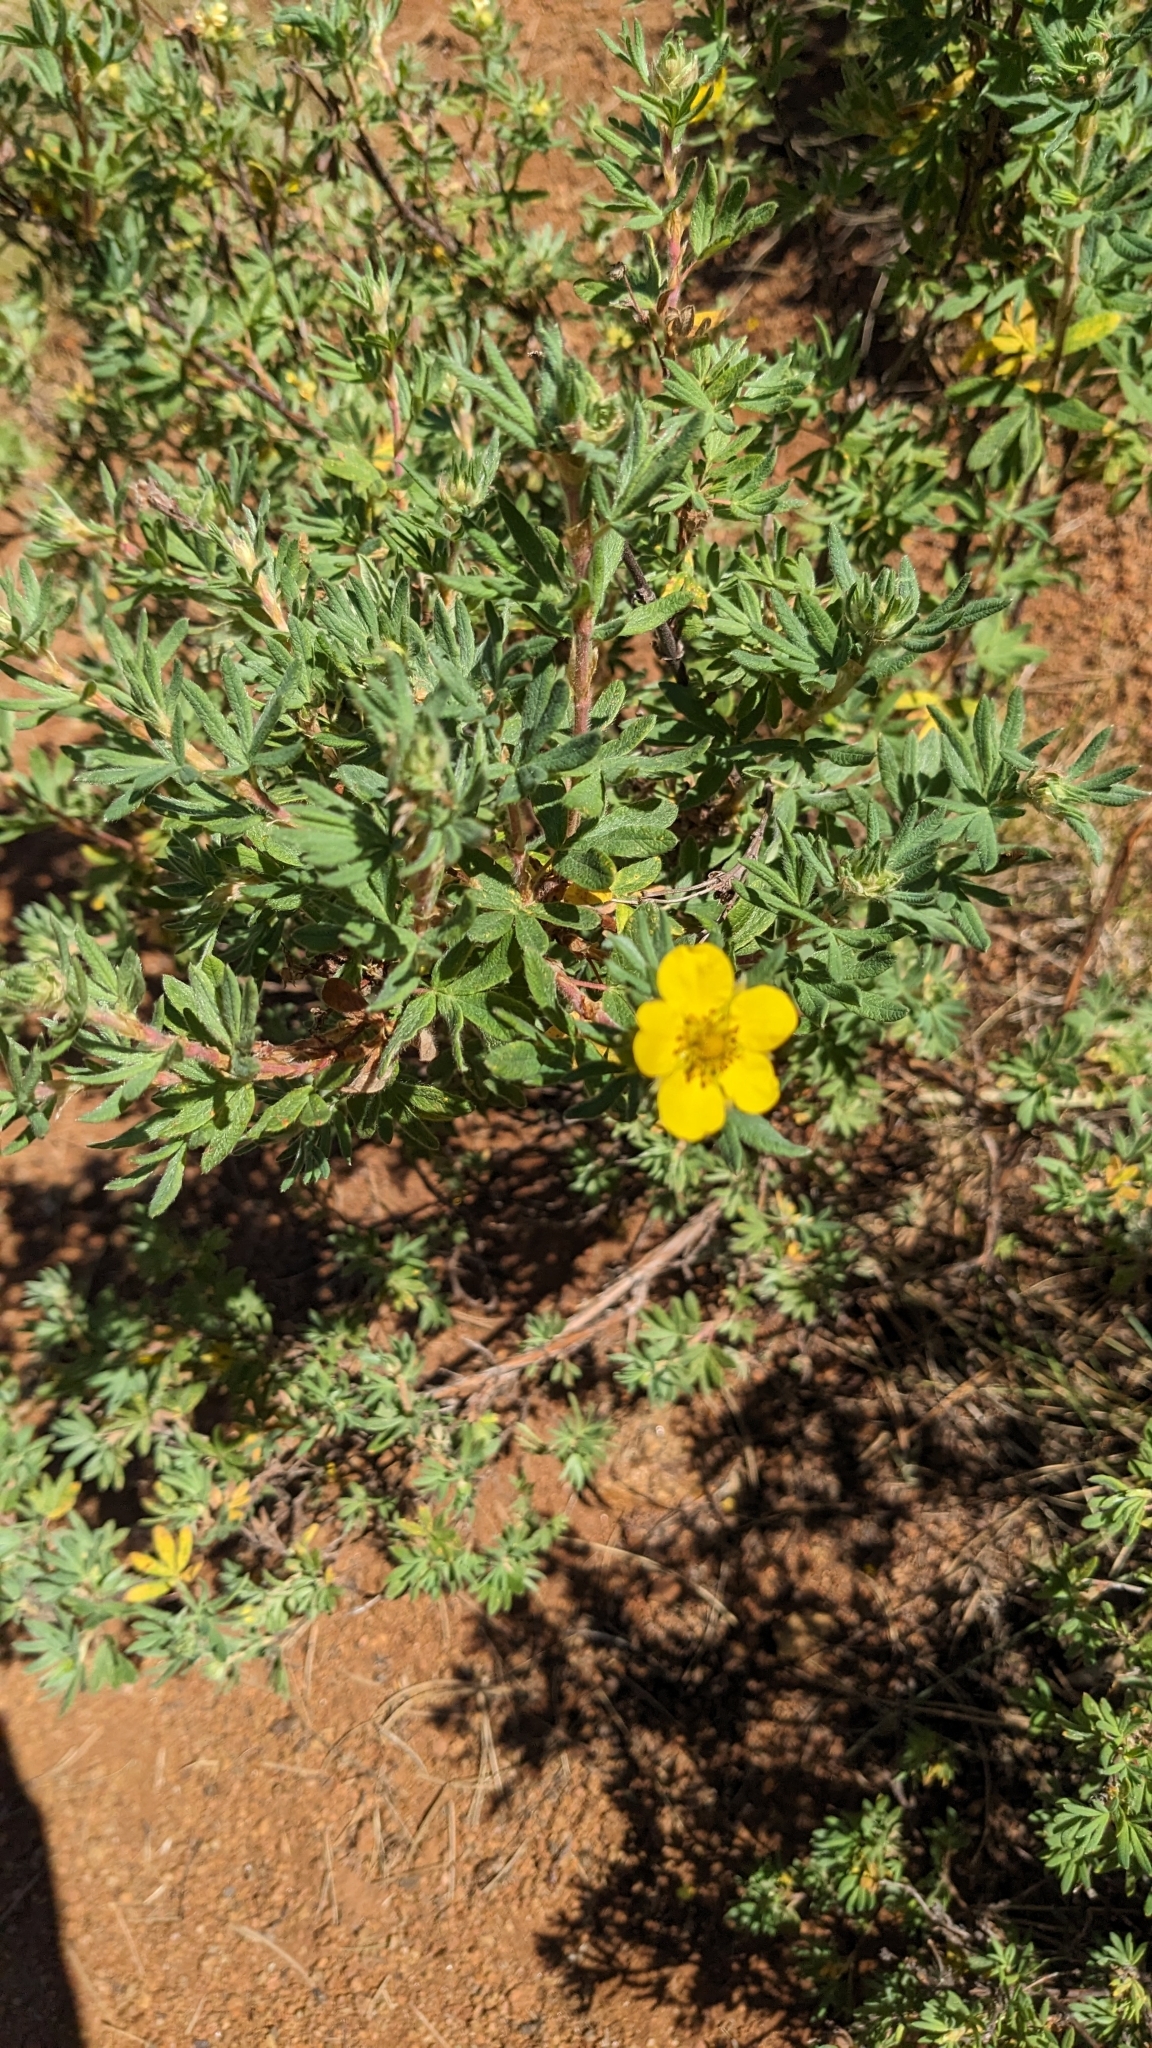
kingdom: Plantae
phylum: Tracheophyta
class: Magnoliopsida
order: Rosales
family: Rosaceae
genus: Dasiphora
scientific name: Dasiphora fruticosa
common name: Shrubby cinquefoil
